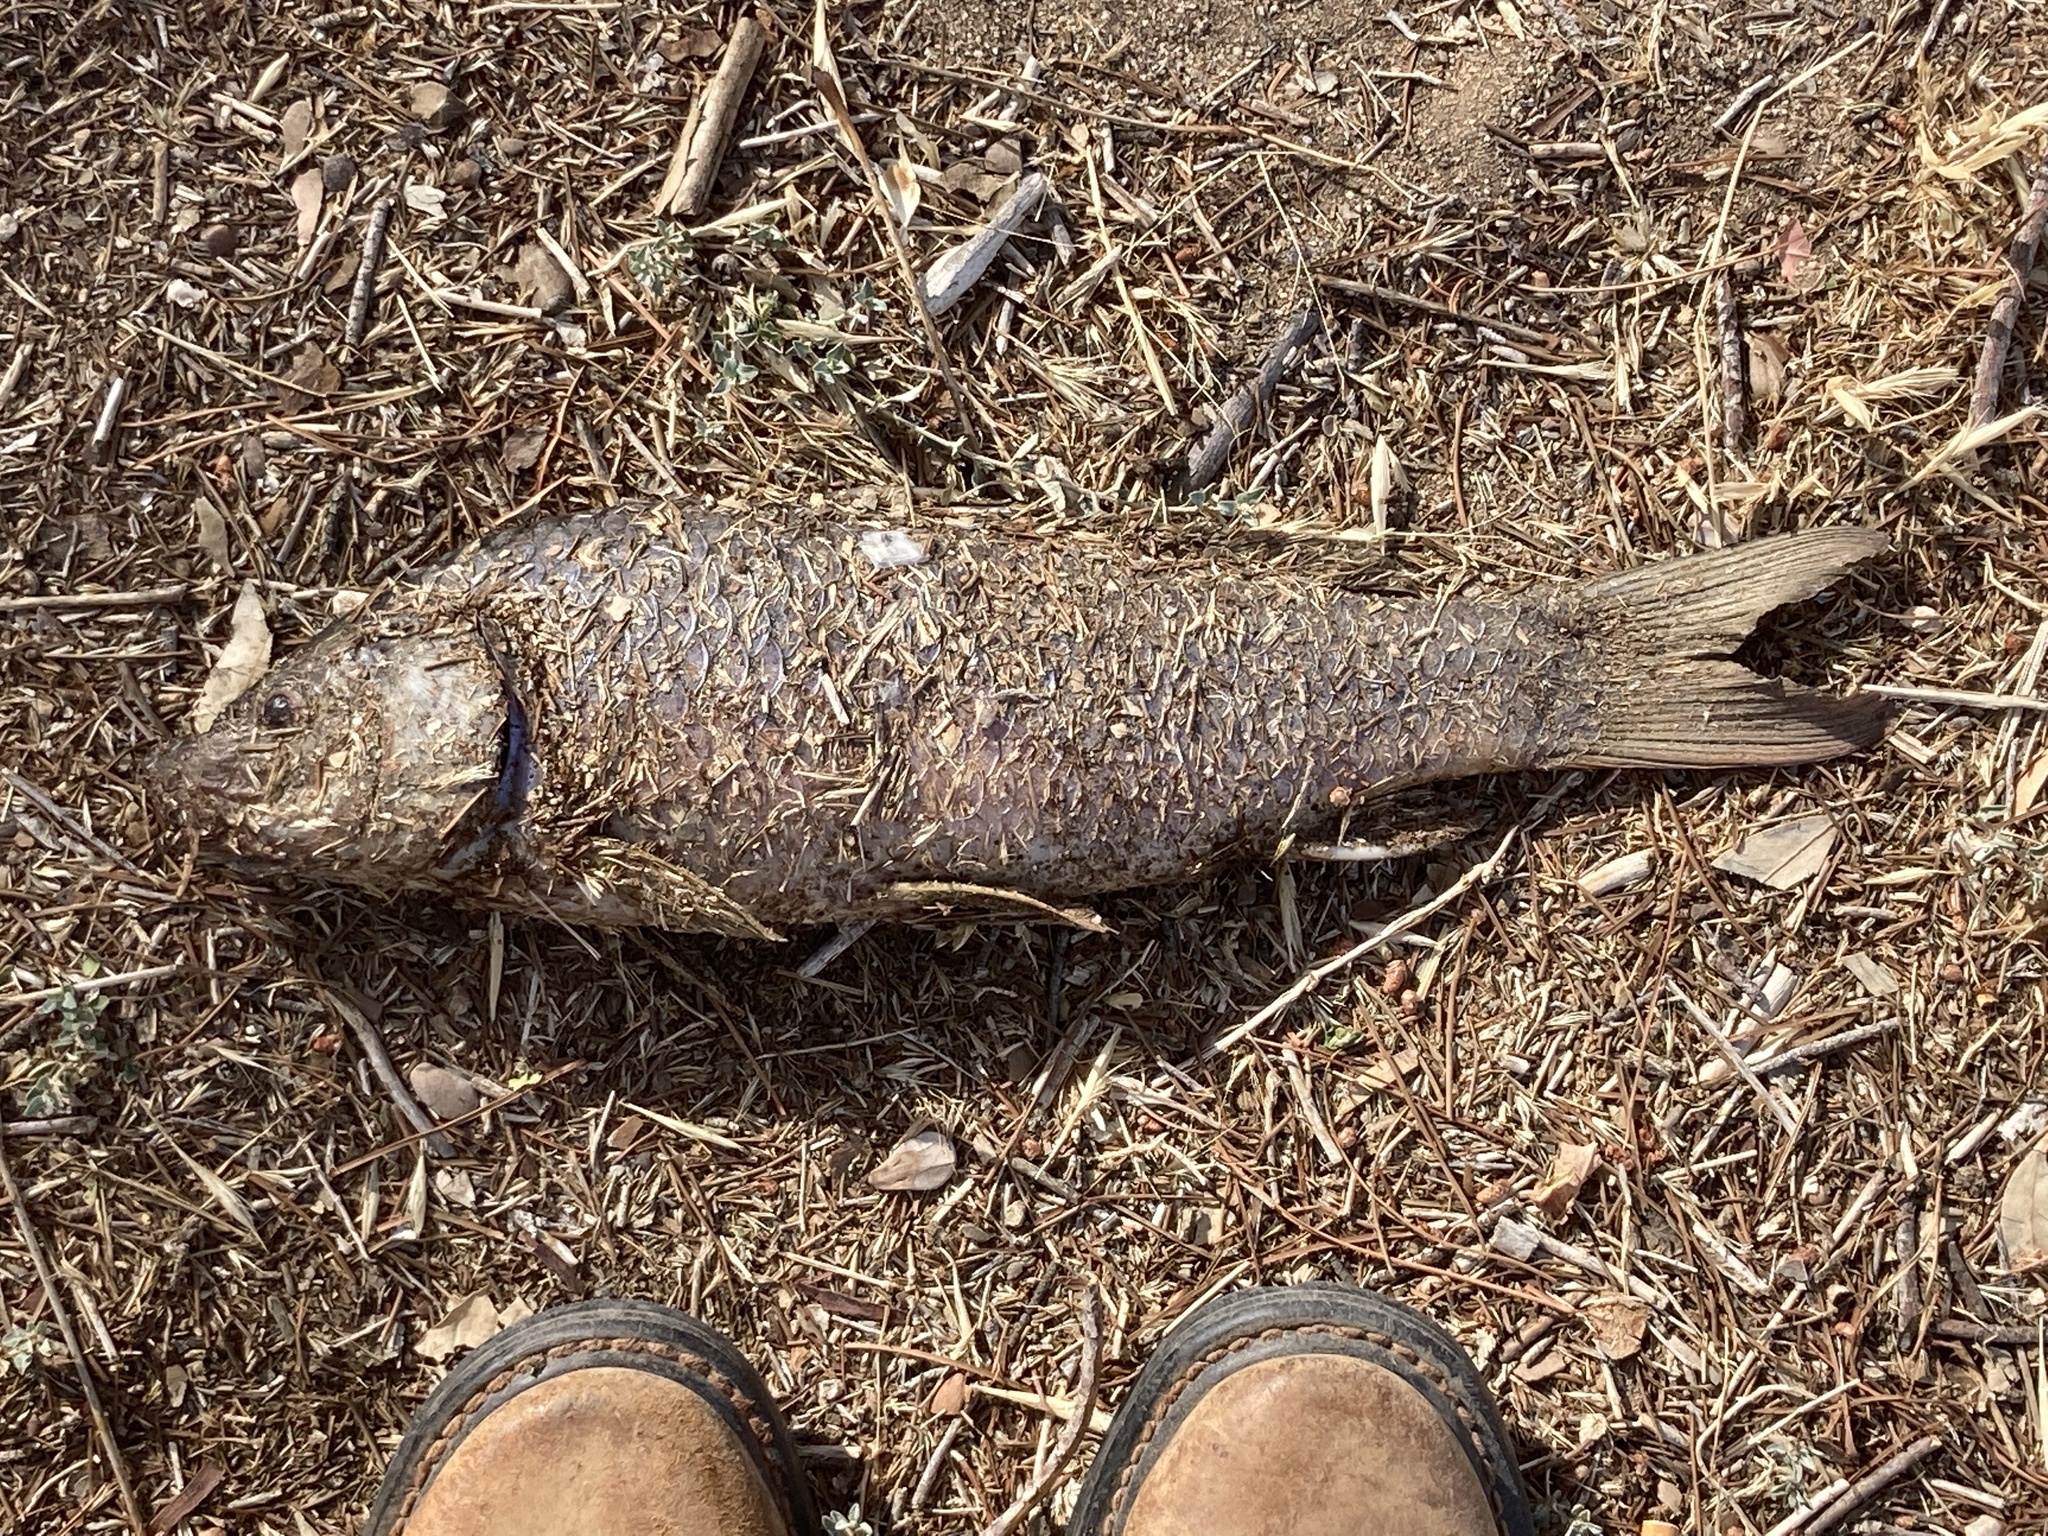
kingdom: Animalia
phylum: Chordata
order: Cypriniformes
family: Cyprinidae
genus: Cyprinus
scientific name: Cyprinus carpio
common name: Common carp
